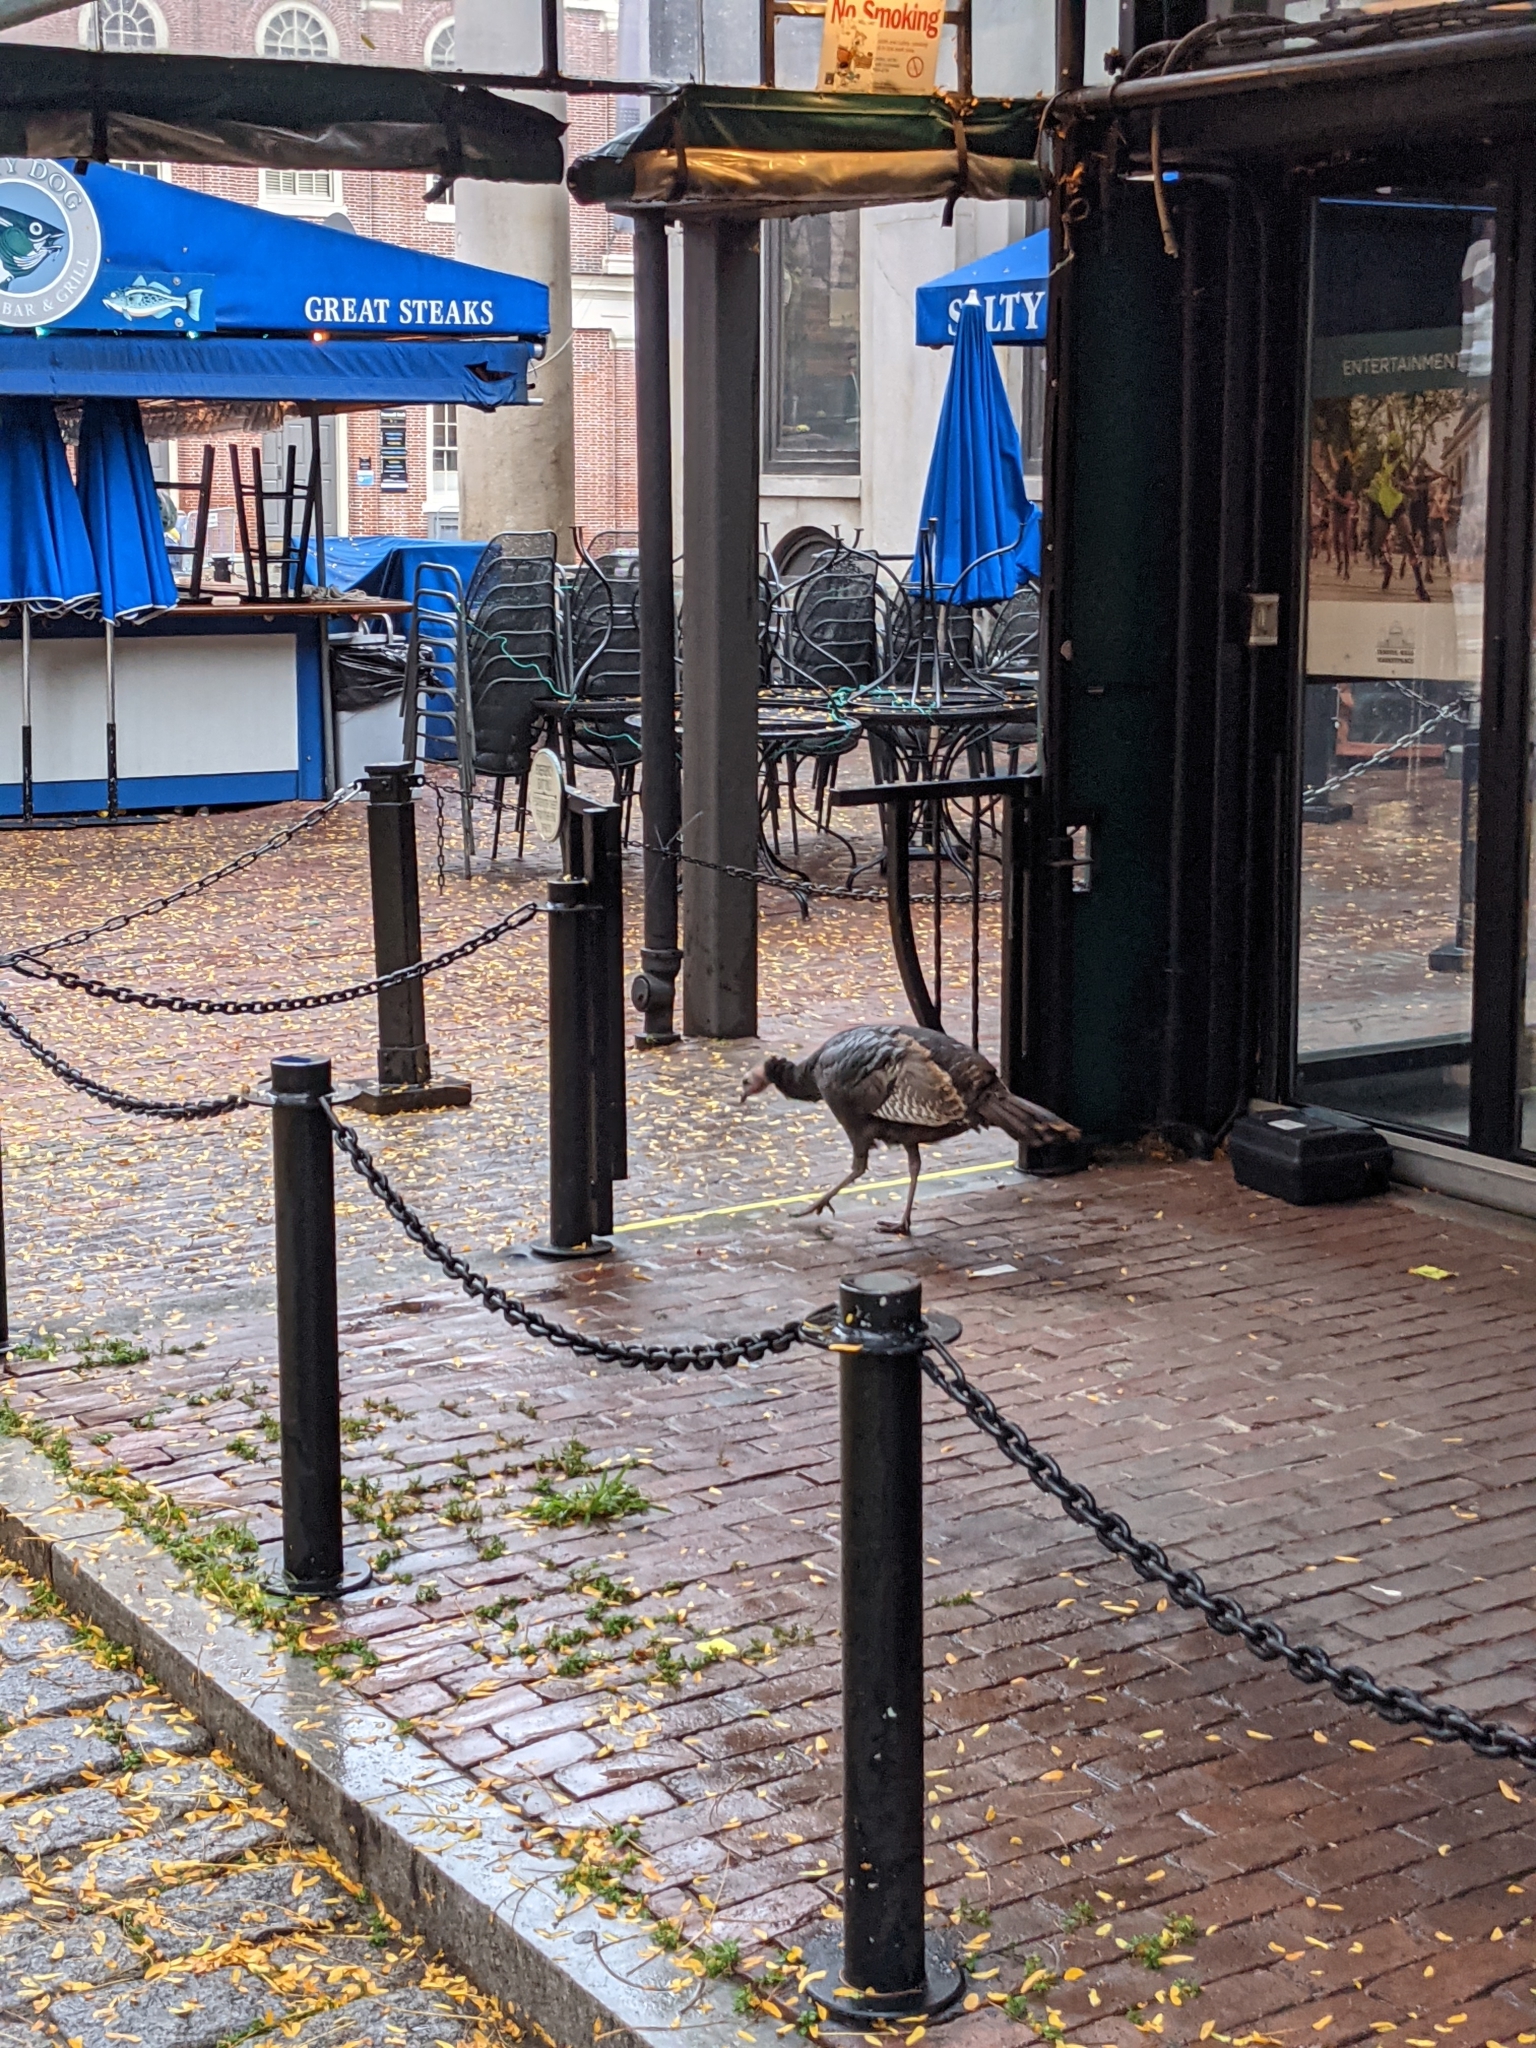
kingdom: Animalia
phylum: Chordata
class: Aves
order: Galliformes
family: Phasianidae
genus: Meleagris
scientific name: Meleagris gallopavo
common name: Wild turkey
